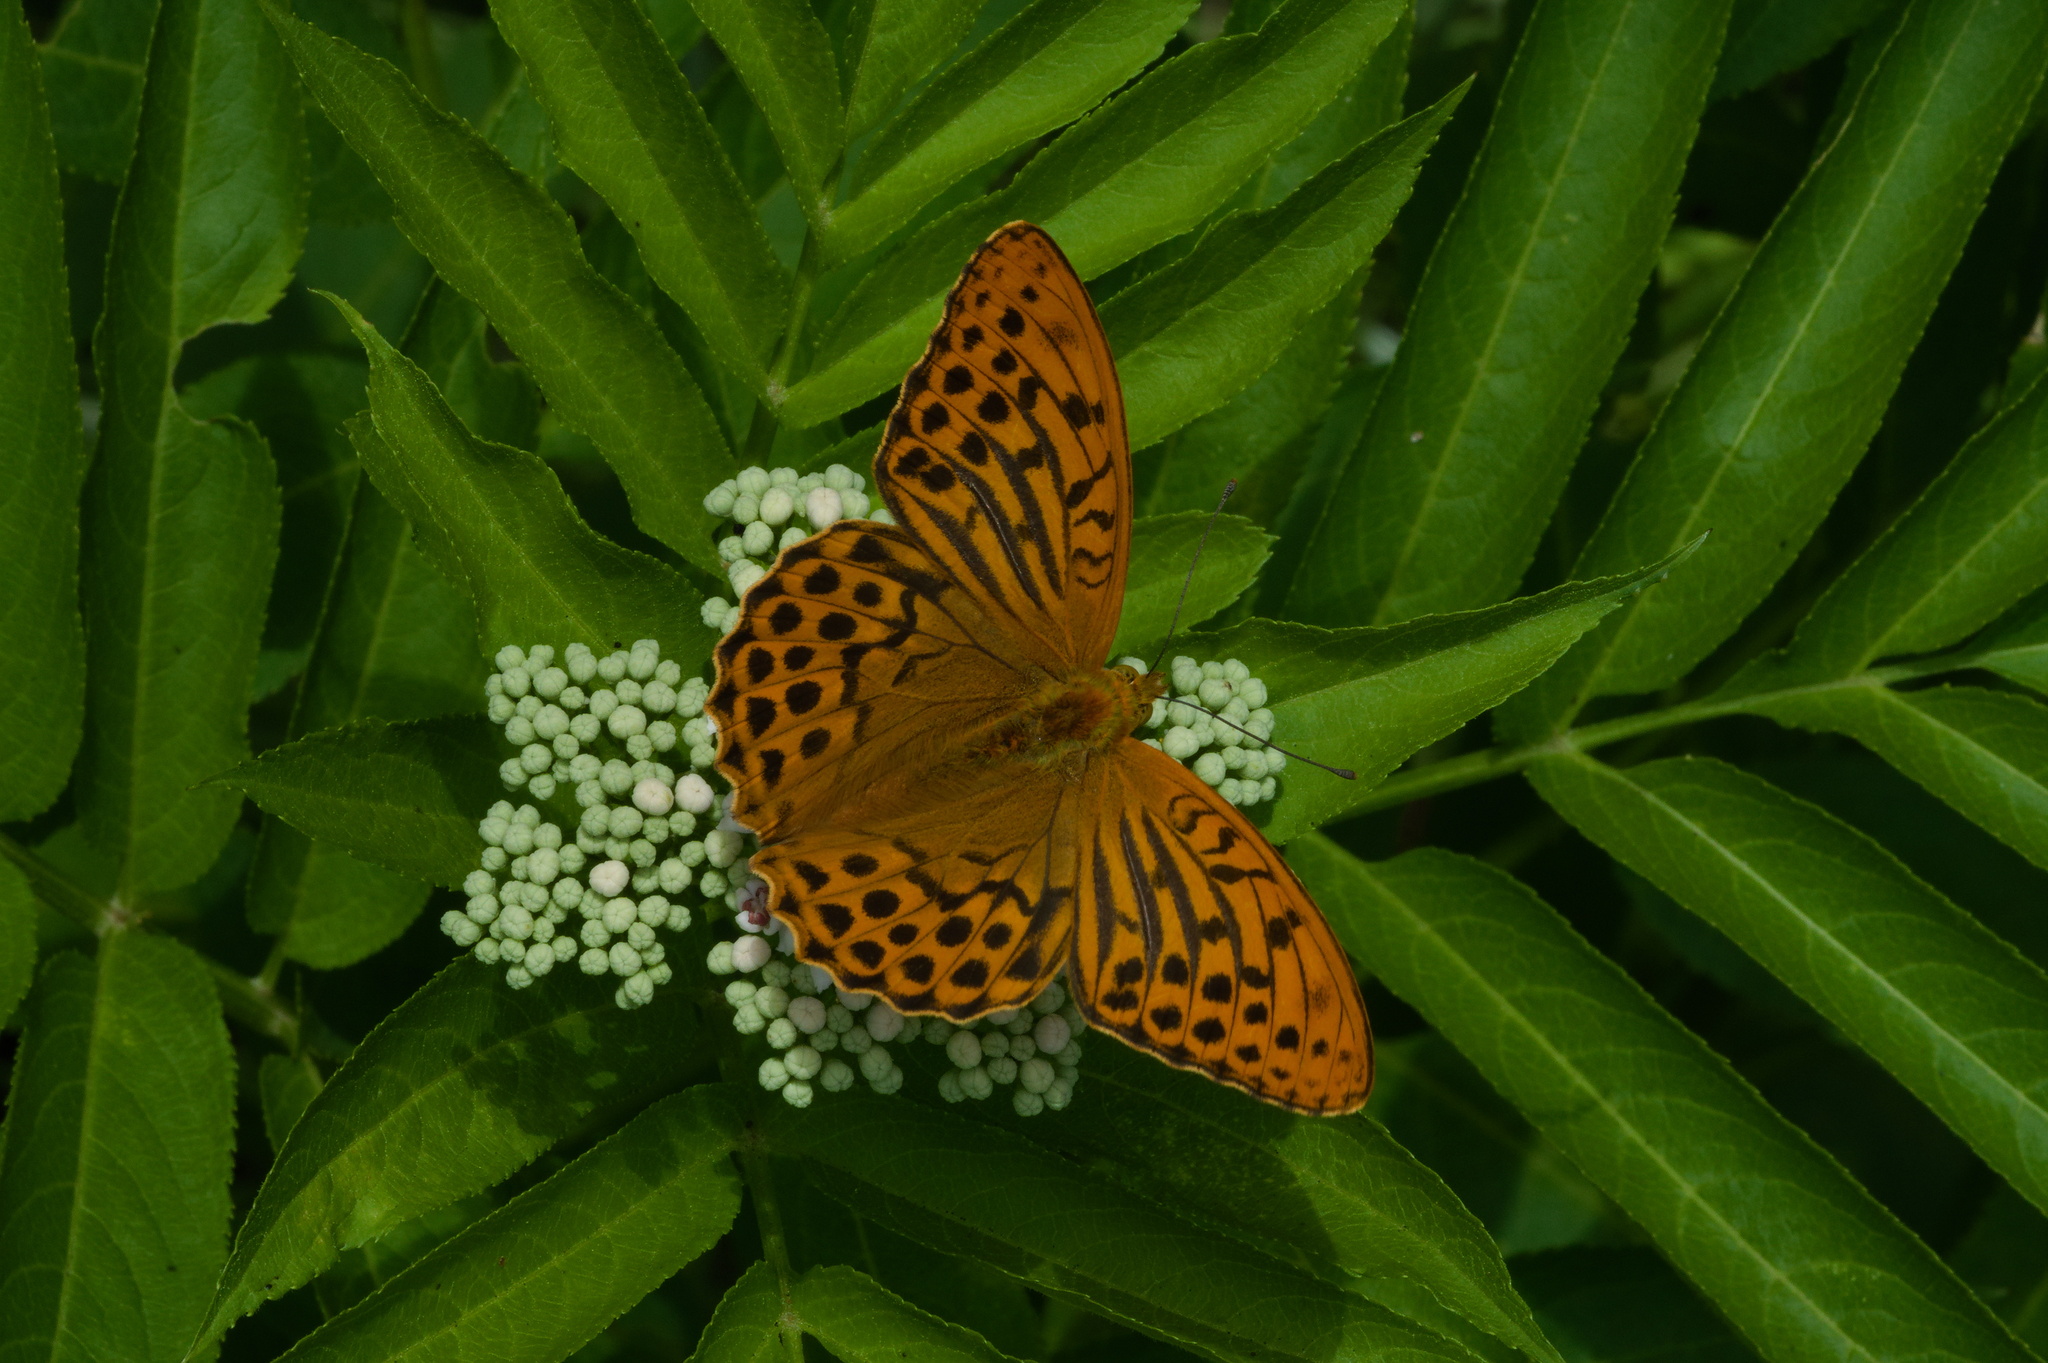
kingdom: Animalia
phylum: Arthropoda
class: Insecta
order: Lepidoptera
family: Nymphalidae
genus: Argynnis
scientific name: Argynnis paphia
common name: Silver-washed fritillary
